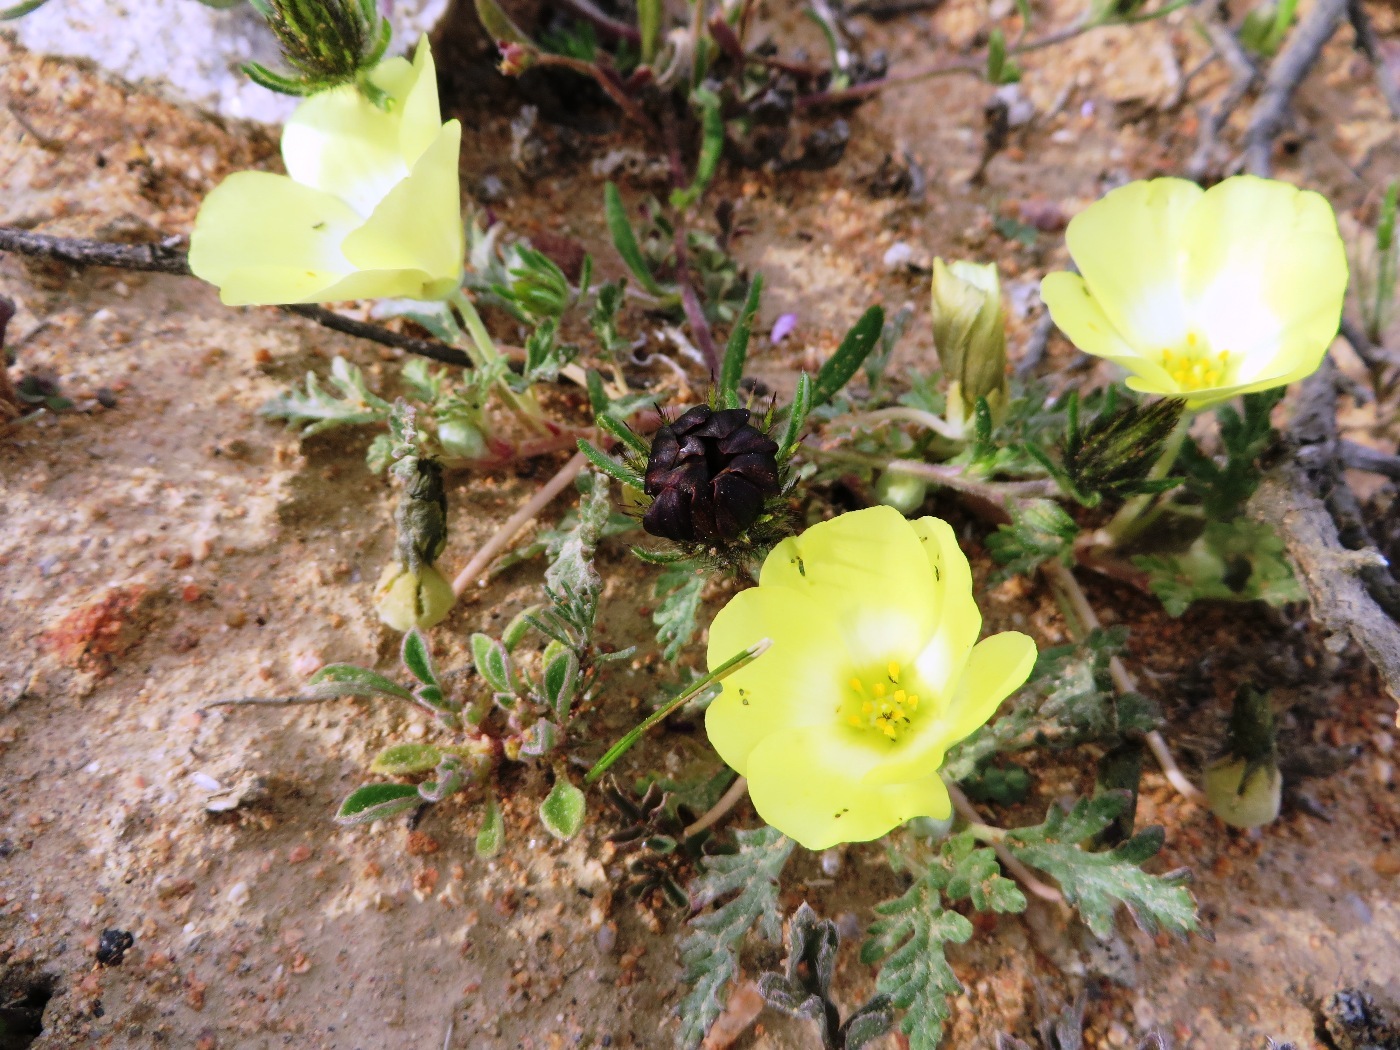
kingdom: Plantae
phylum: Tracheophyta
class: Magnoliopsida
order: Malvales
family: Neuradaceae
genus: Grielum
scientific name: Grielum humifusum
